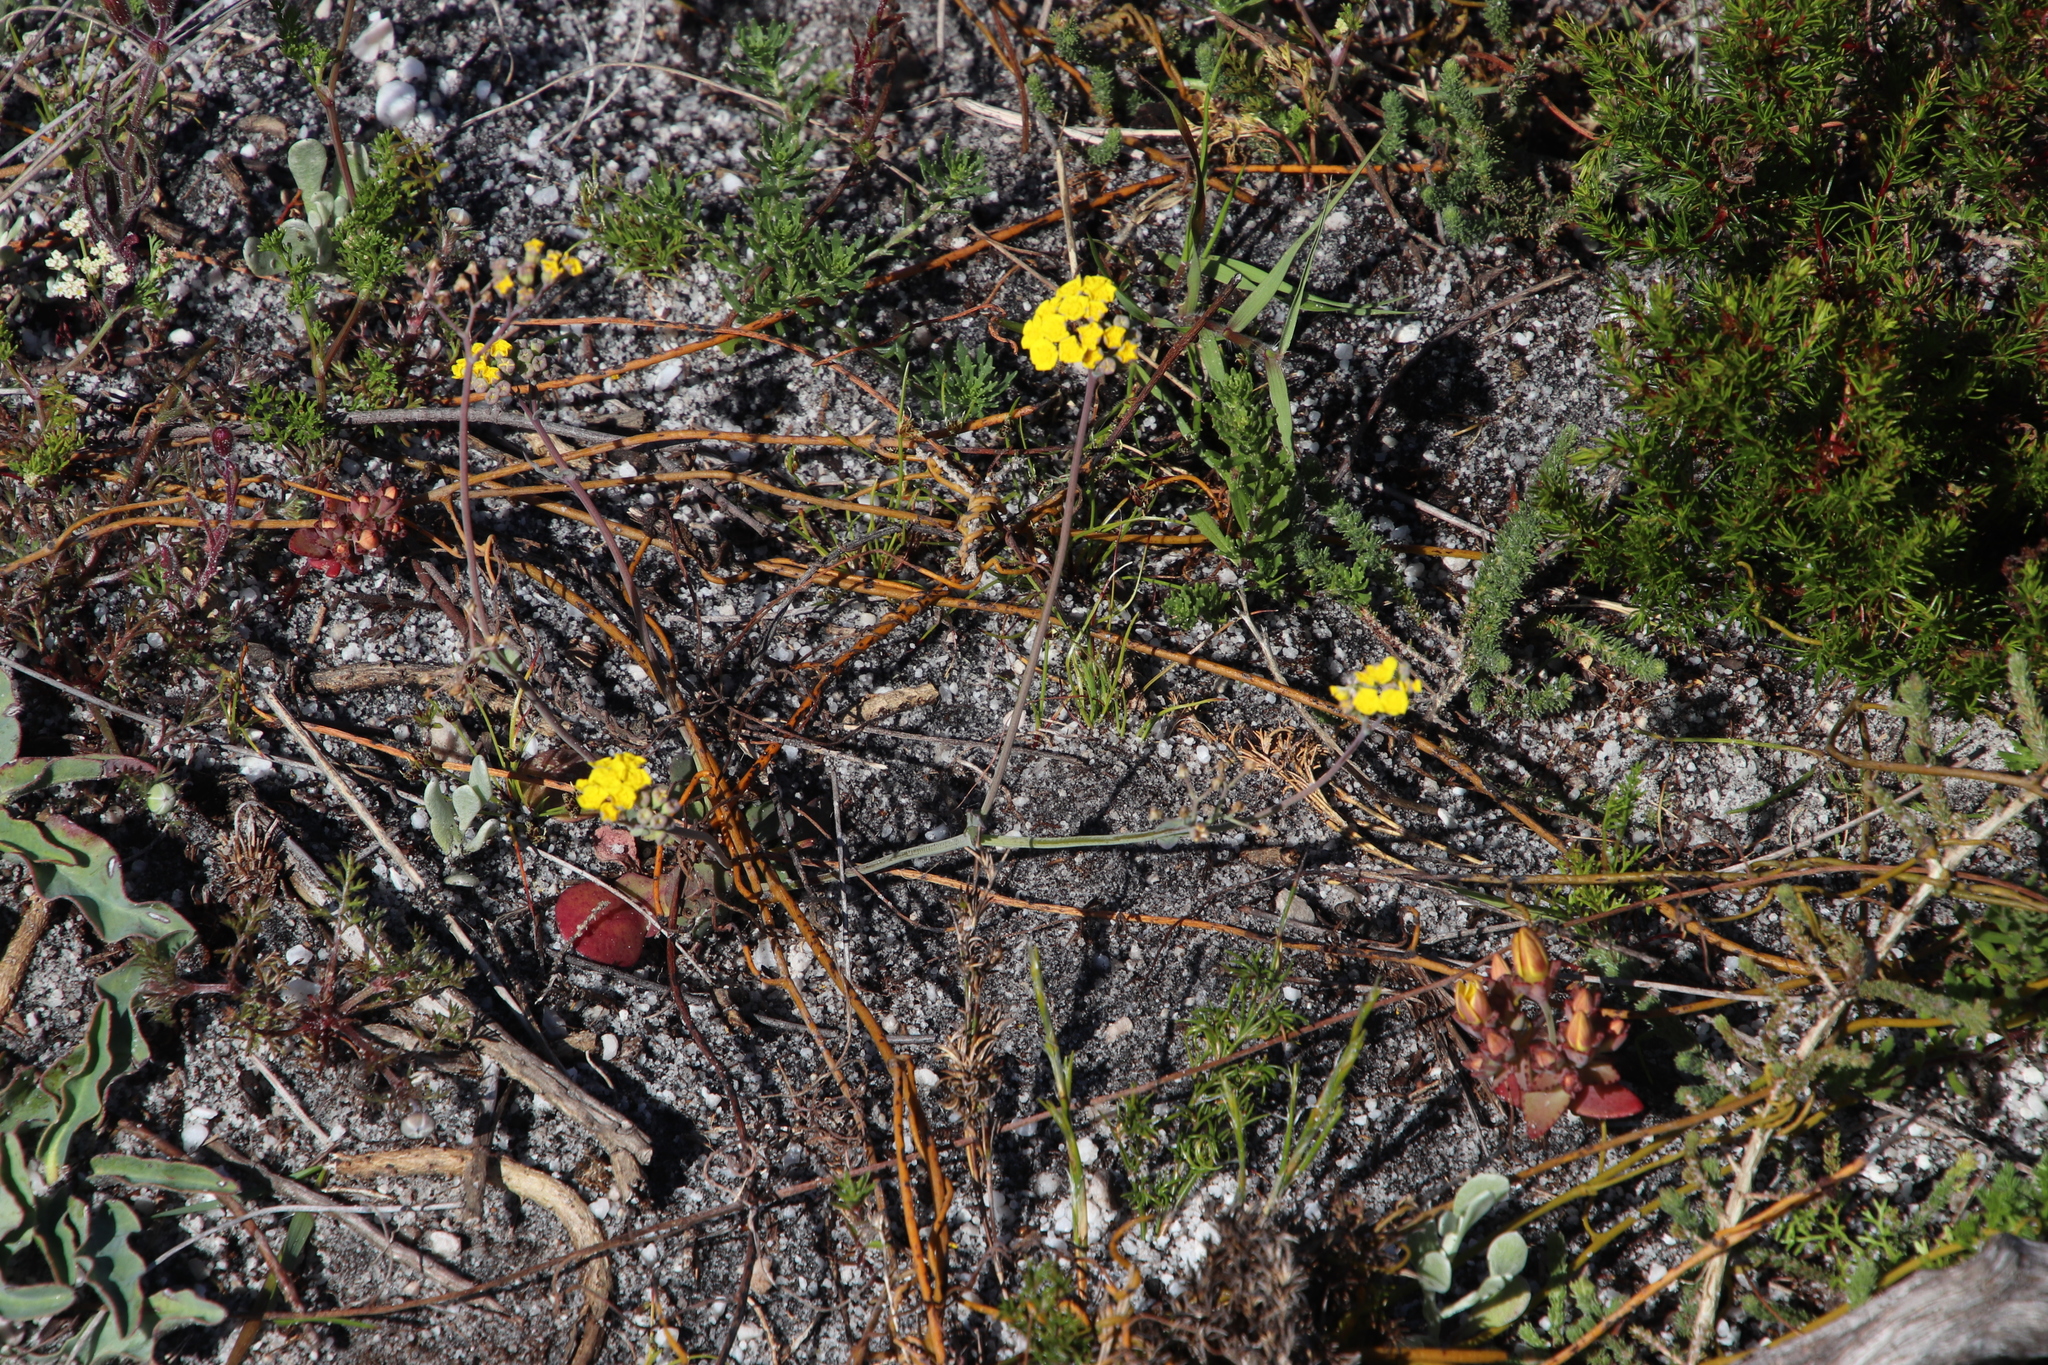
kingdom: Plantae
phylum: Tracheophyta
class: Magnoliopsida
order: Asterales
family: Asteraceae
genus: Gymnodiscus
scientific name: Gymnodiscus capillaris
